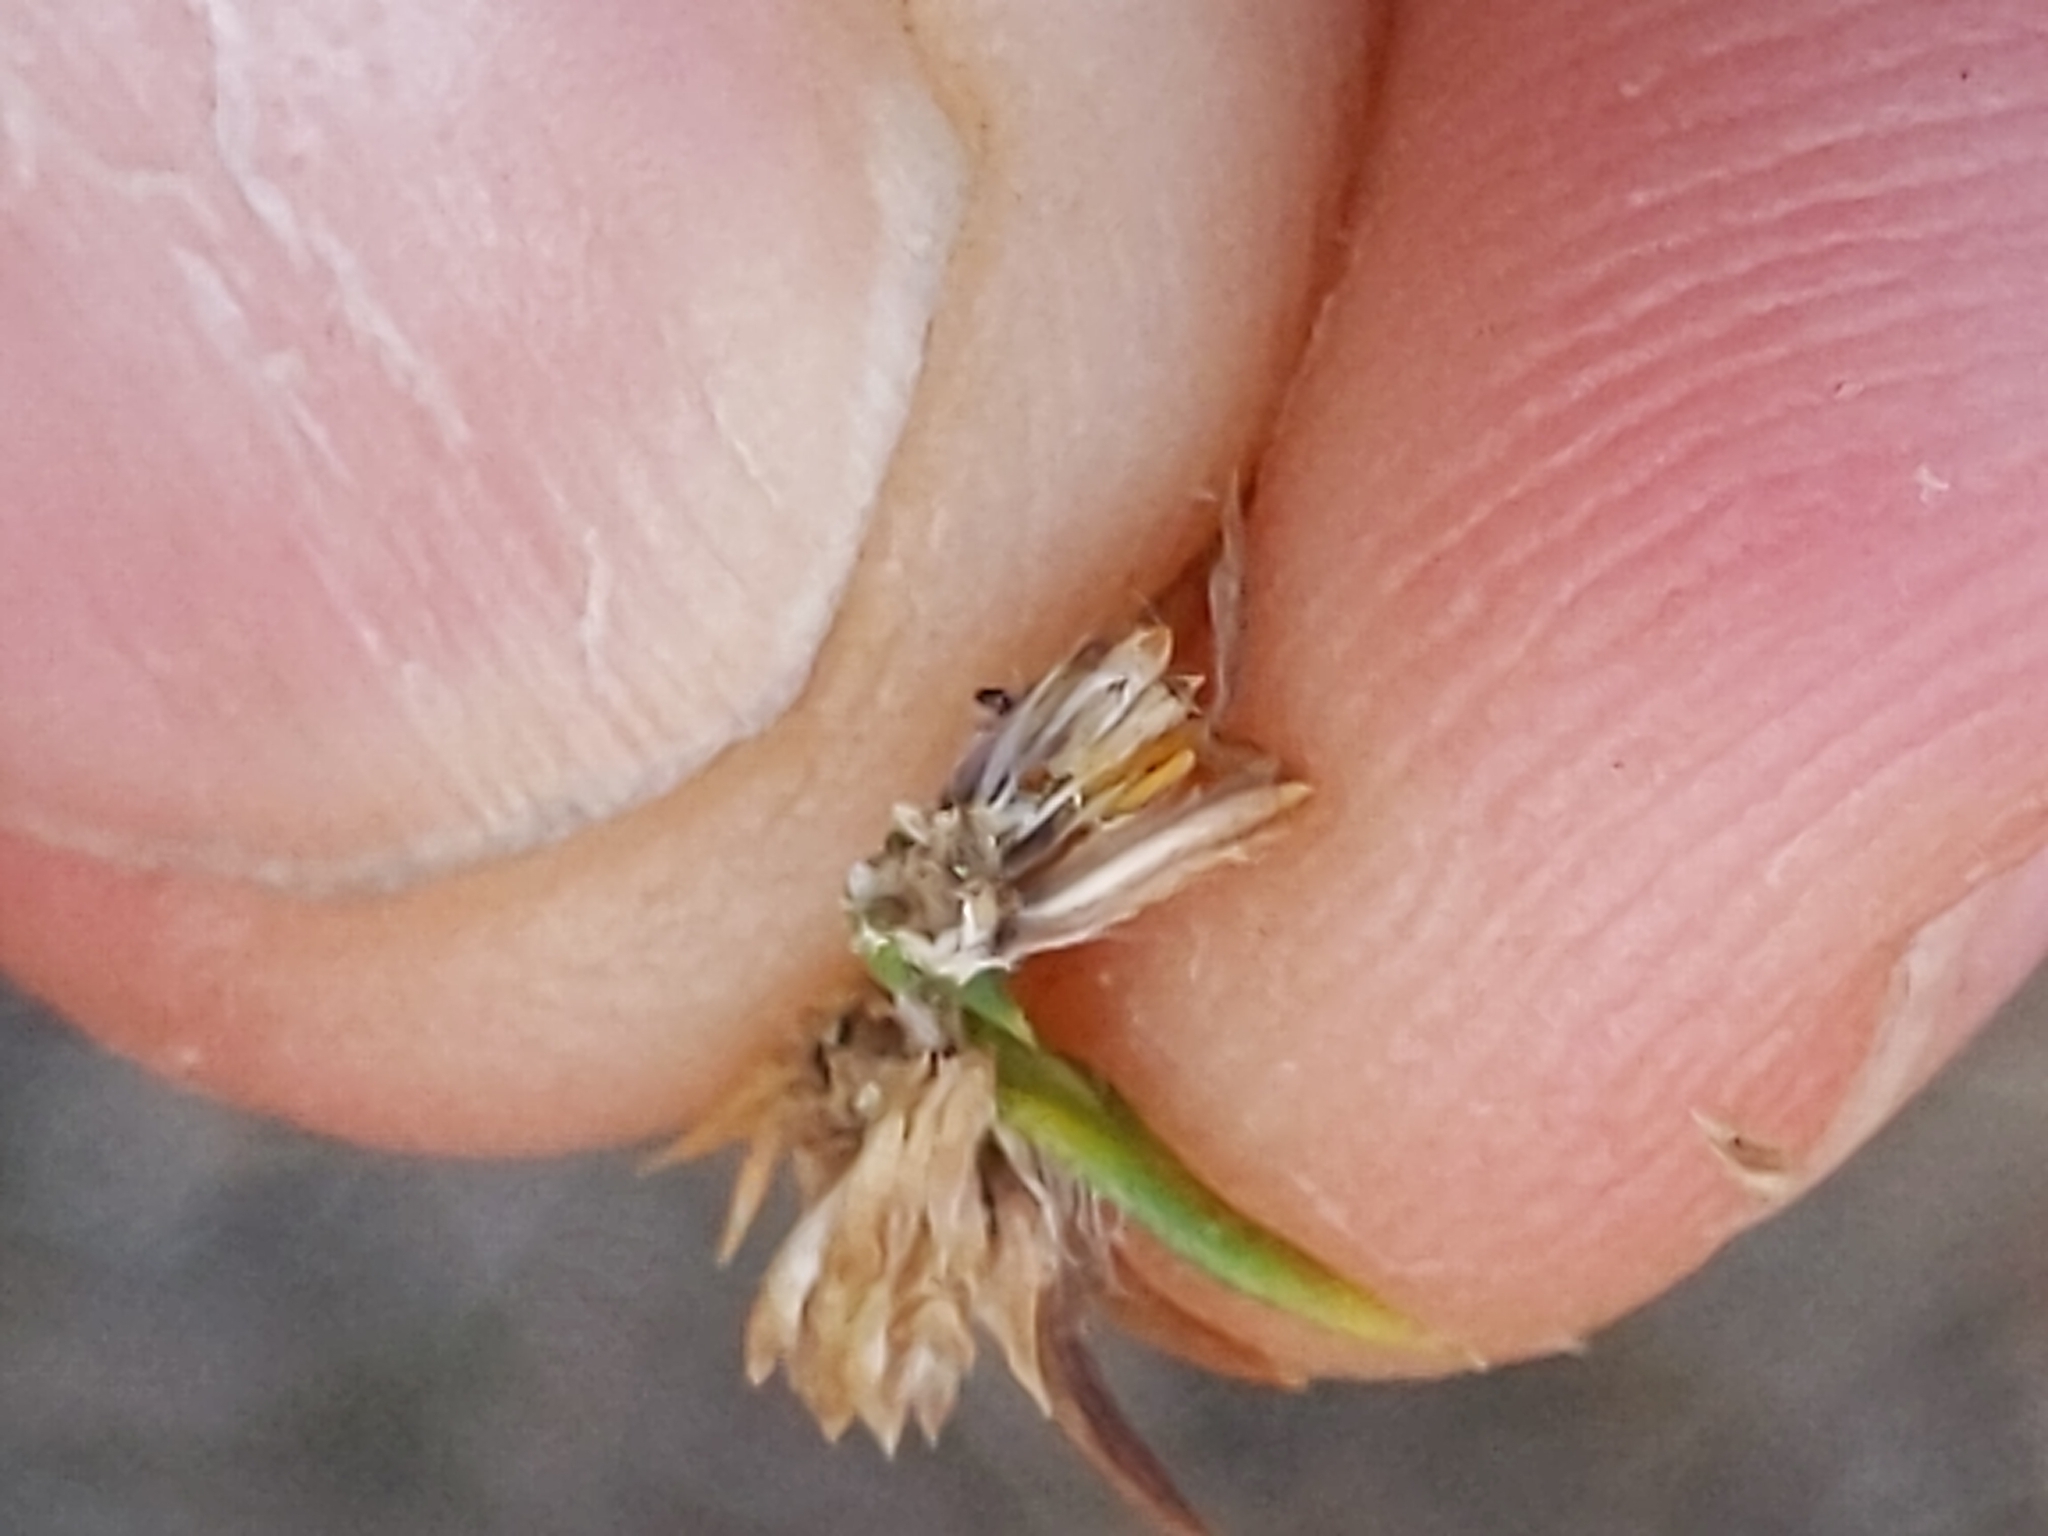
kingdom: Plantae
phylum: Tracheophyta
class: Magnoliopsida
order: Asterales
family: Asteraceae
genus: Centromadia
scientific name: Centromadia pungens
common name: Common spikeweed
